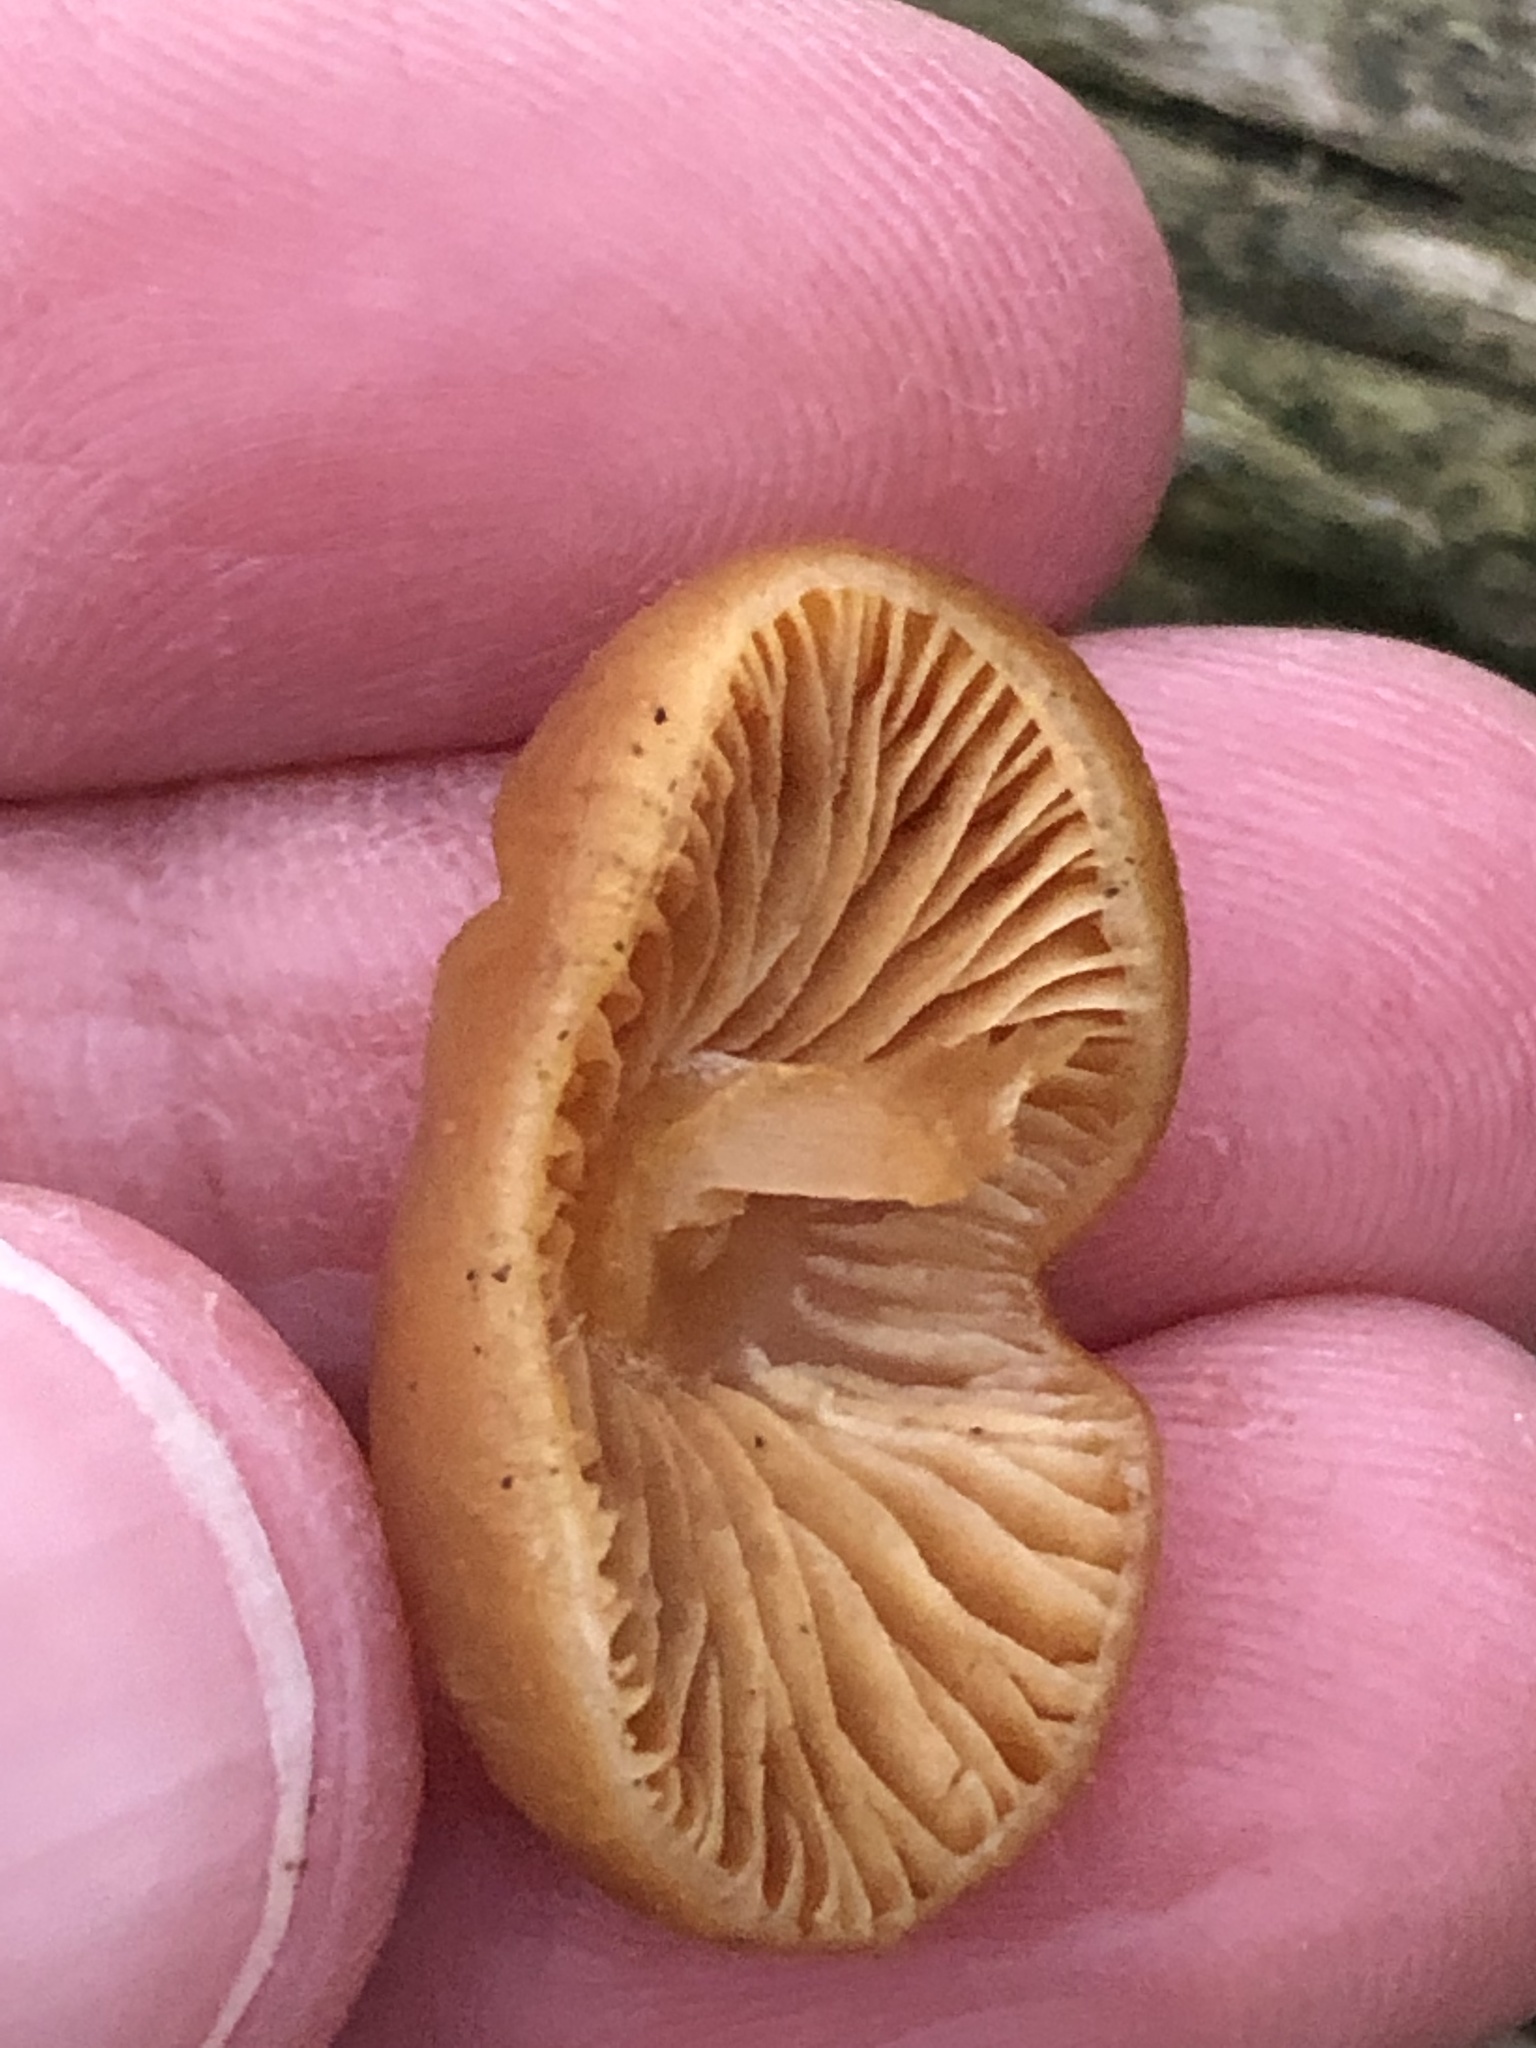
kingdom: Fungi
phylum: Basidiomycota
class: Agaricomycetes
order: Agaricales
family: Hymenogastraceae
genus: Galerina
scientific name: Galerina marginata
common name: Funeral bell
